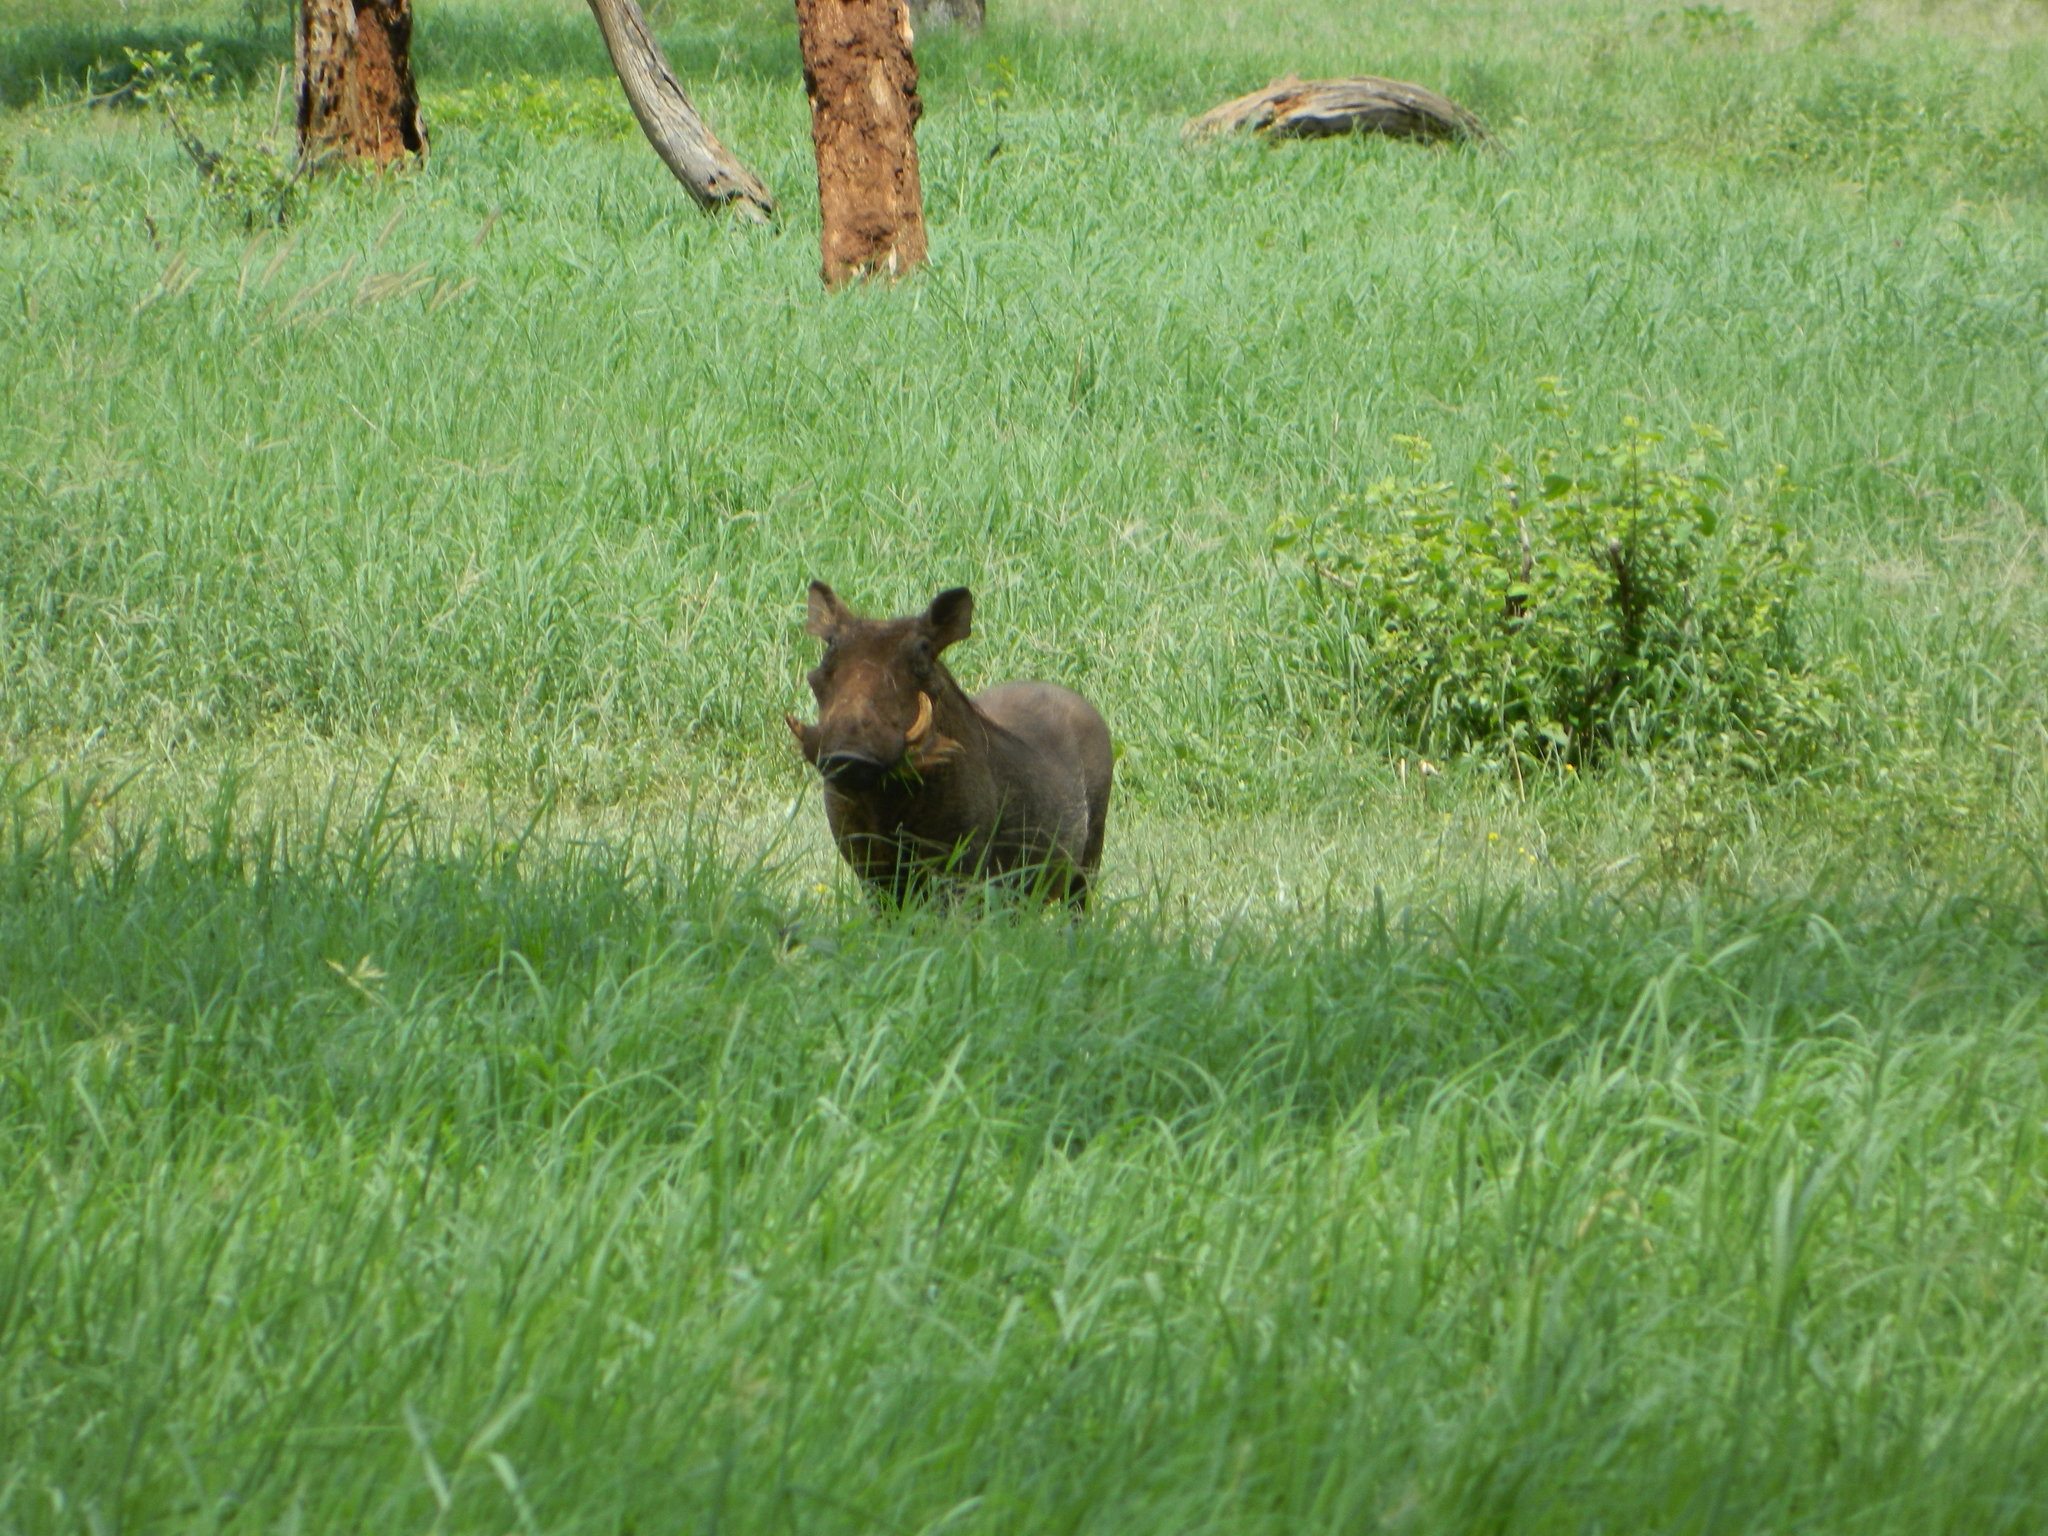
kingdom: Animalia
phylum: Chordata
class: Mammalia
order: Artiodactyla
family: Suidae
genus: Phacochoerus
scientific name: Phacochoerus africanus
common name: Common warthog
